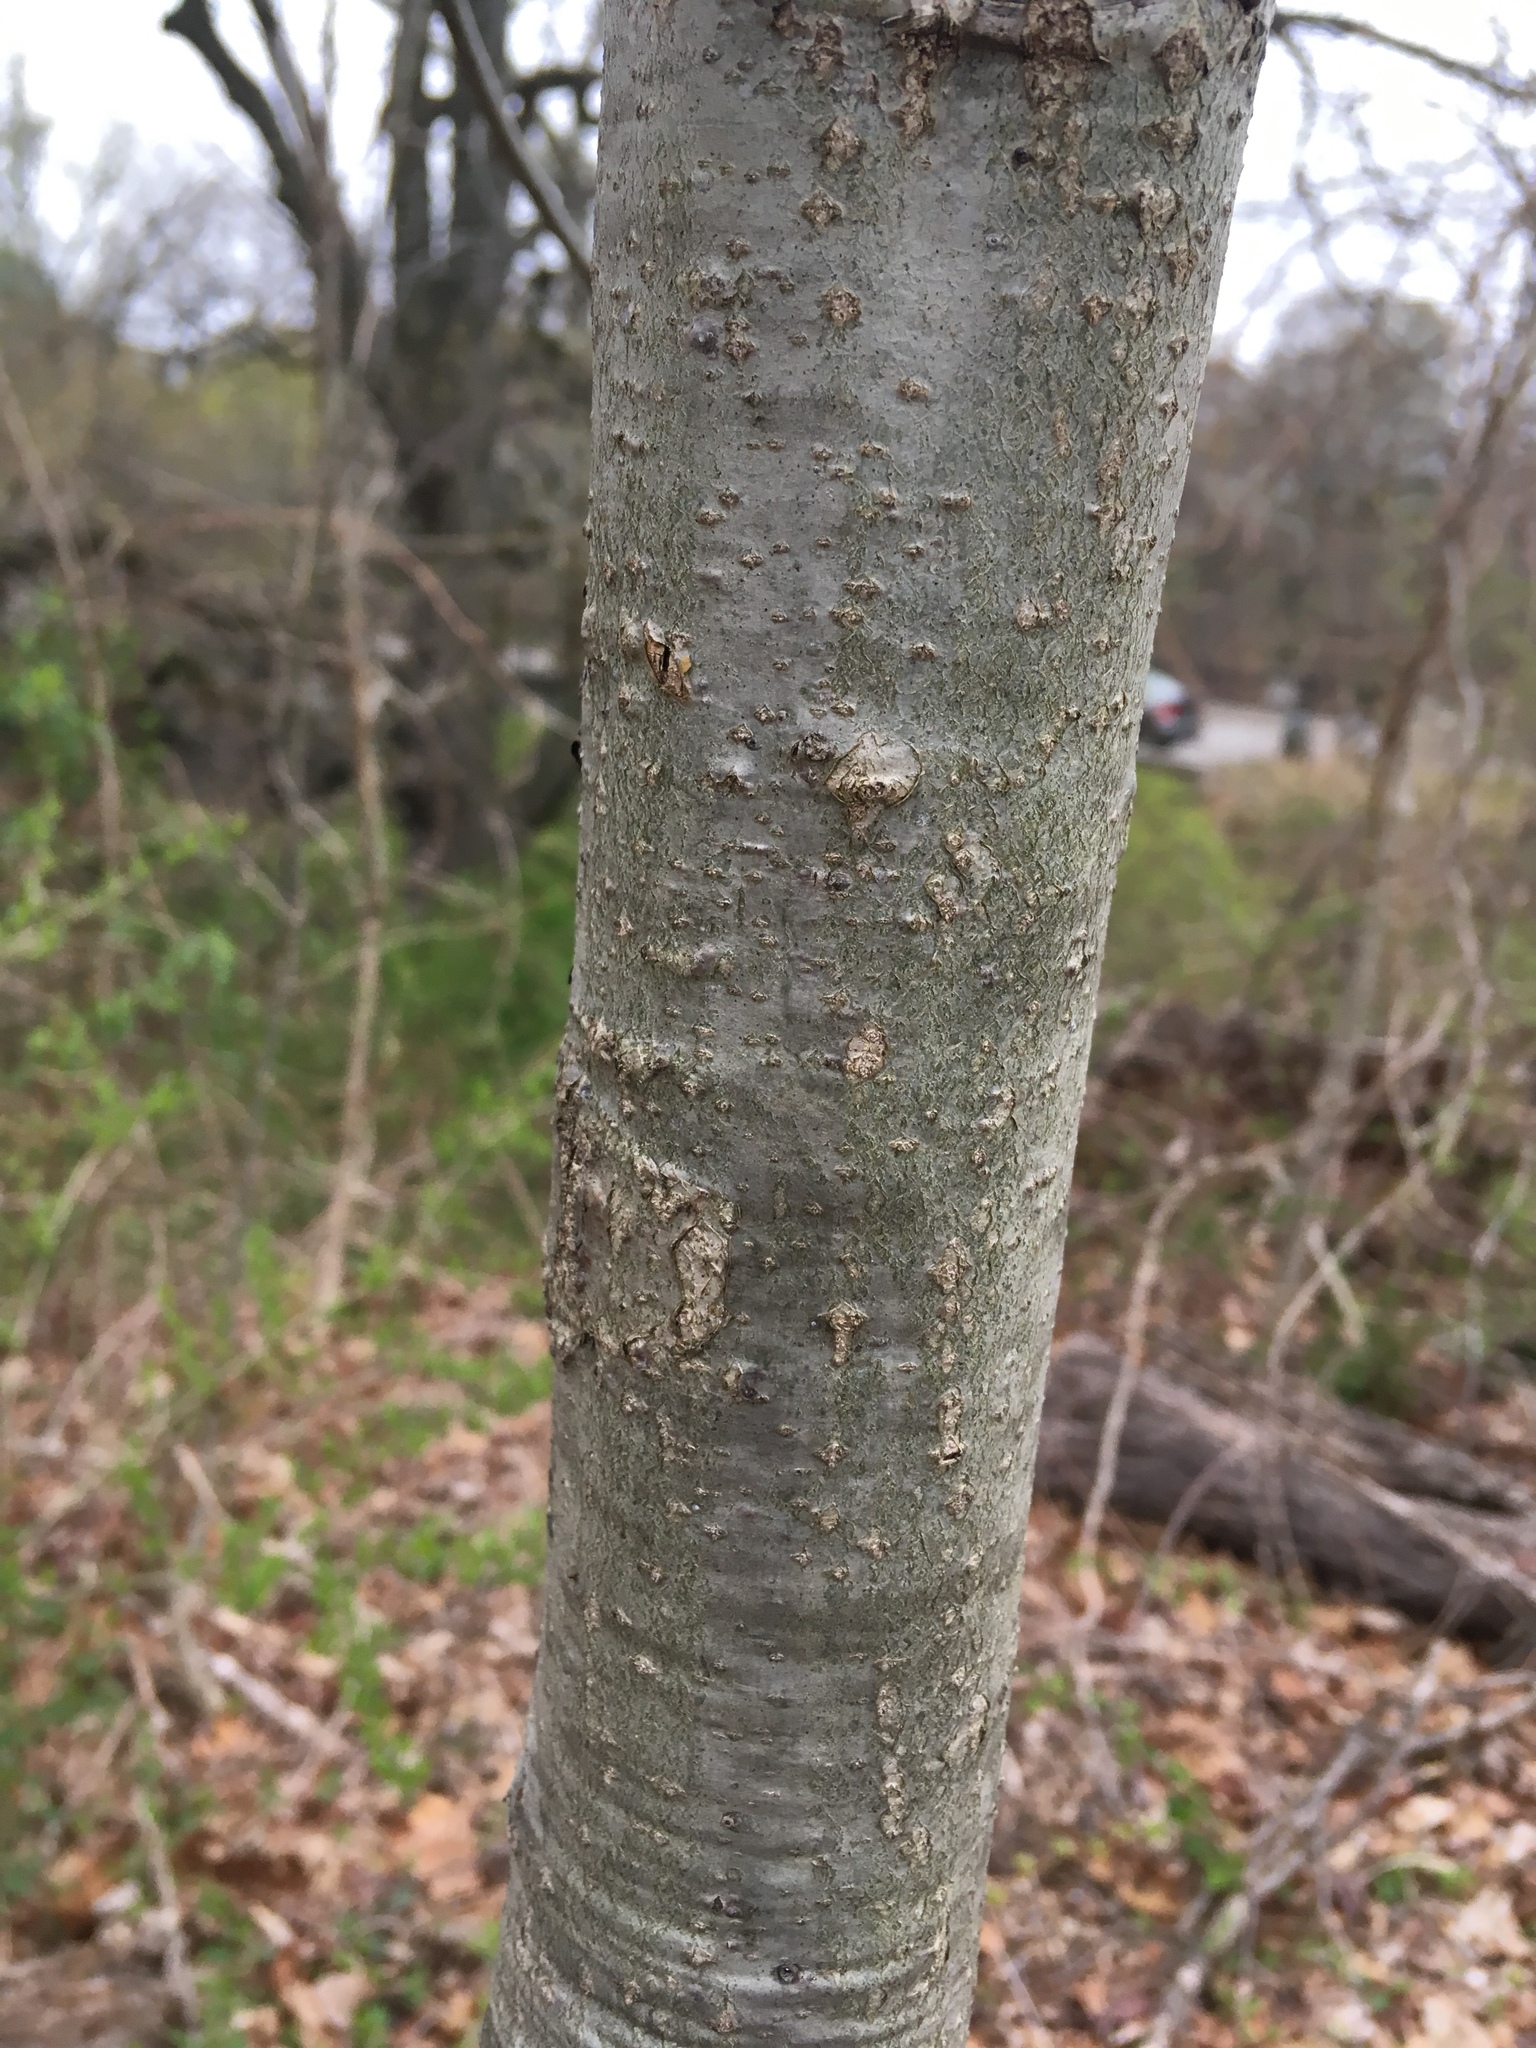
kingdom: Plantae
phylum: Tracheophyta
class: Magnoliopsida
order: Fagales
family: Fagaceae
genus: Quercus
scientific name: Quercus velutina
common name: Black oak
